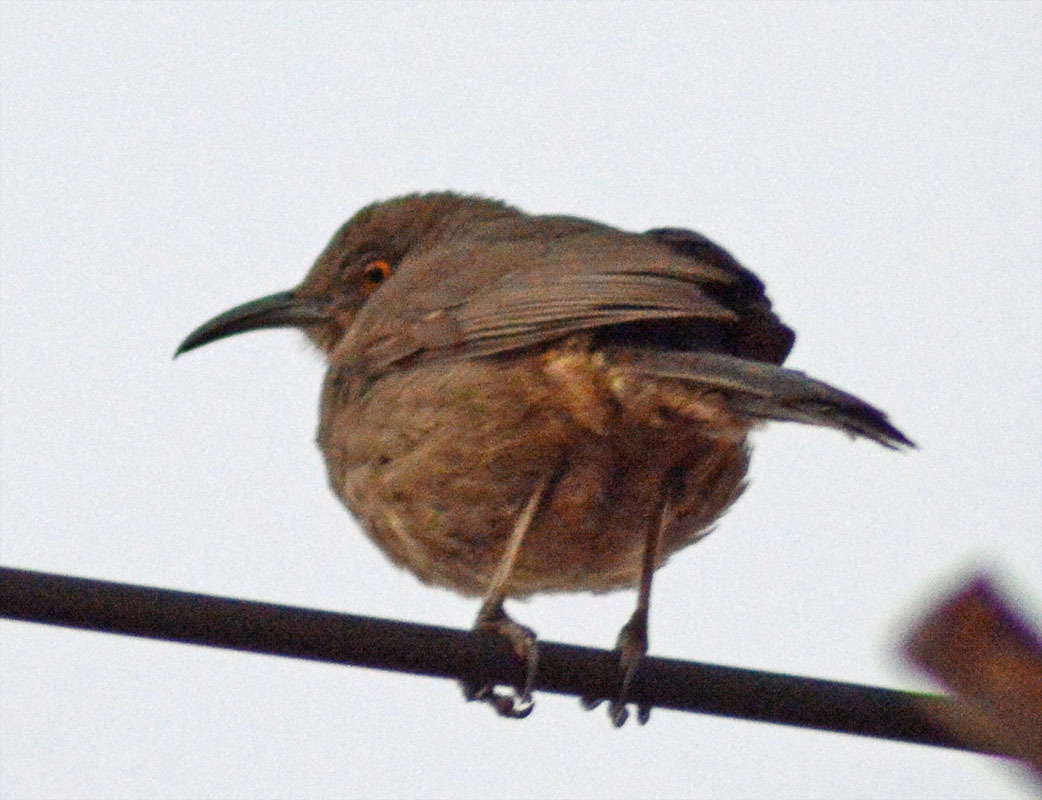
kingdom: Animalia
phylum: Chordata
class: Aves
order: Passeriformes
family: Mimidae
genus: Toxostoma
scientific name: Toxostoma curvirostre
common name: Curve-billed thrasher
